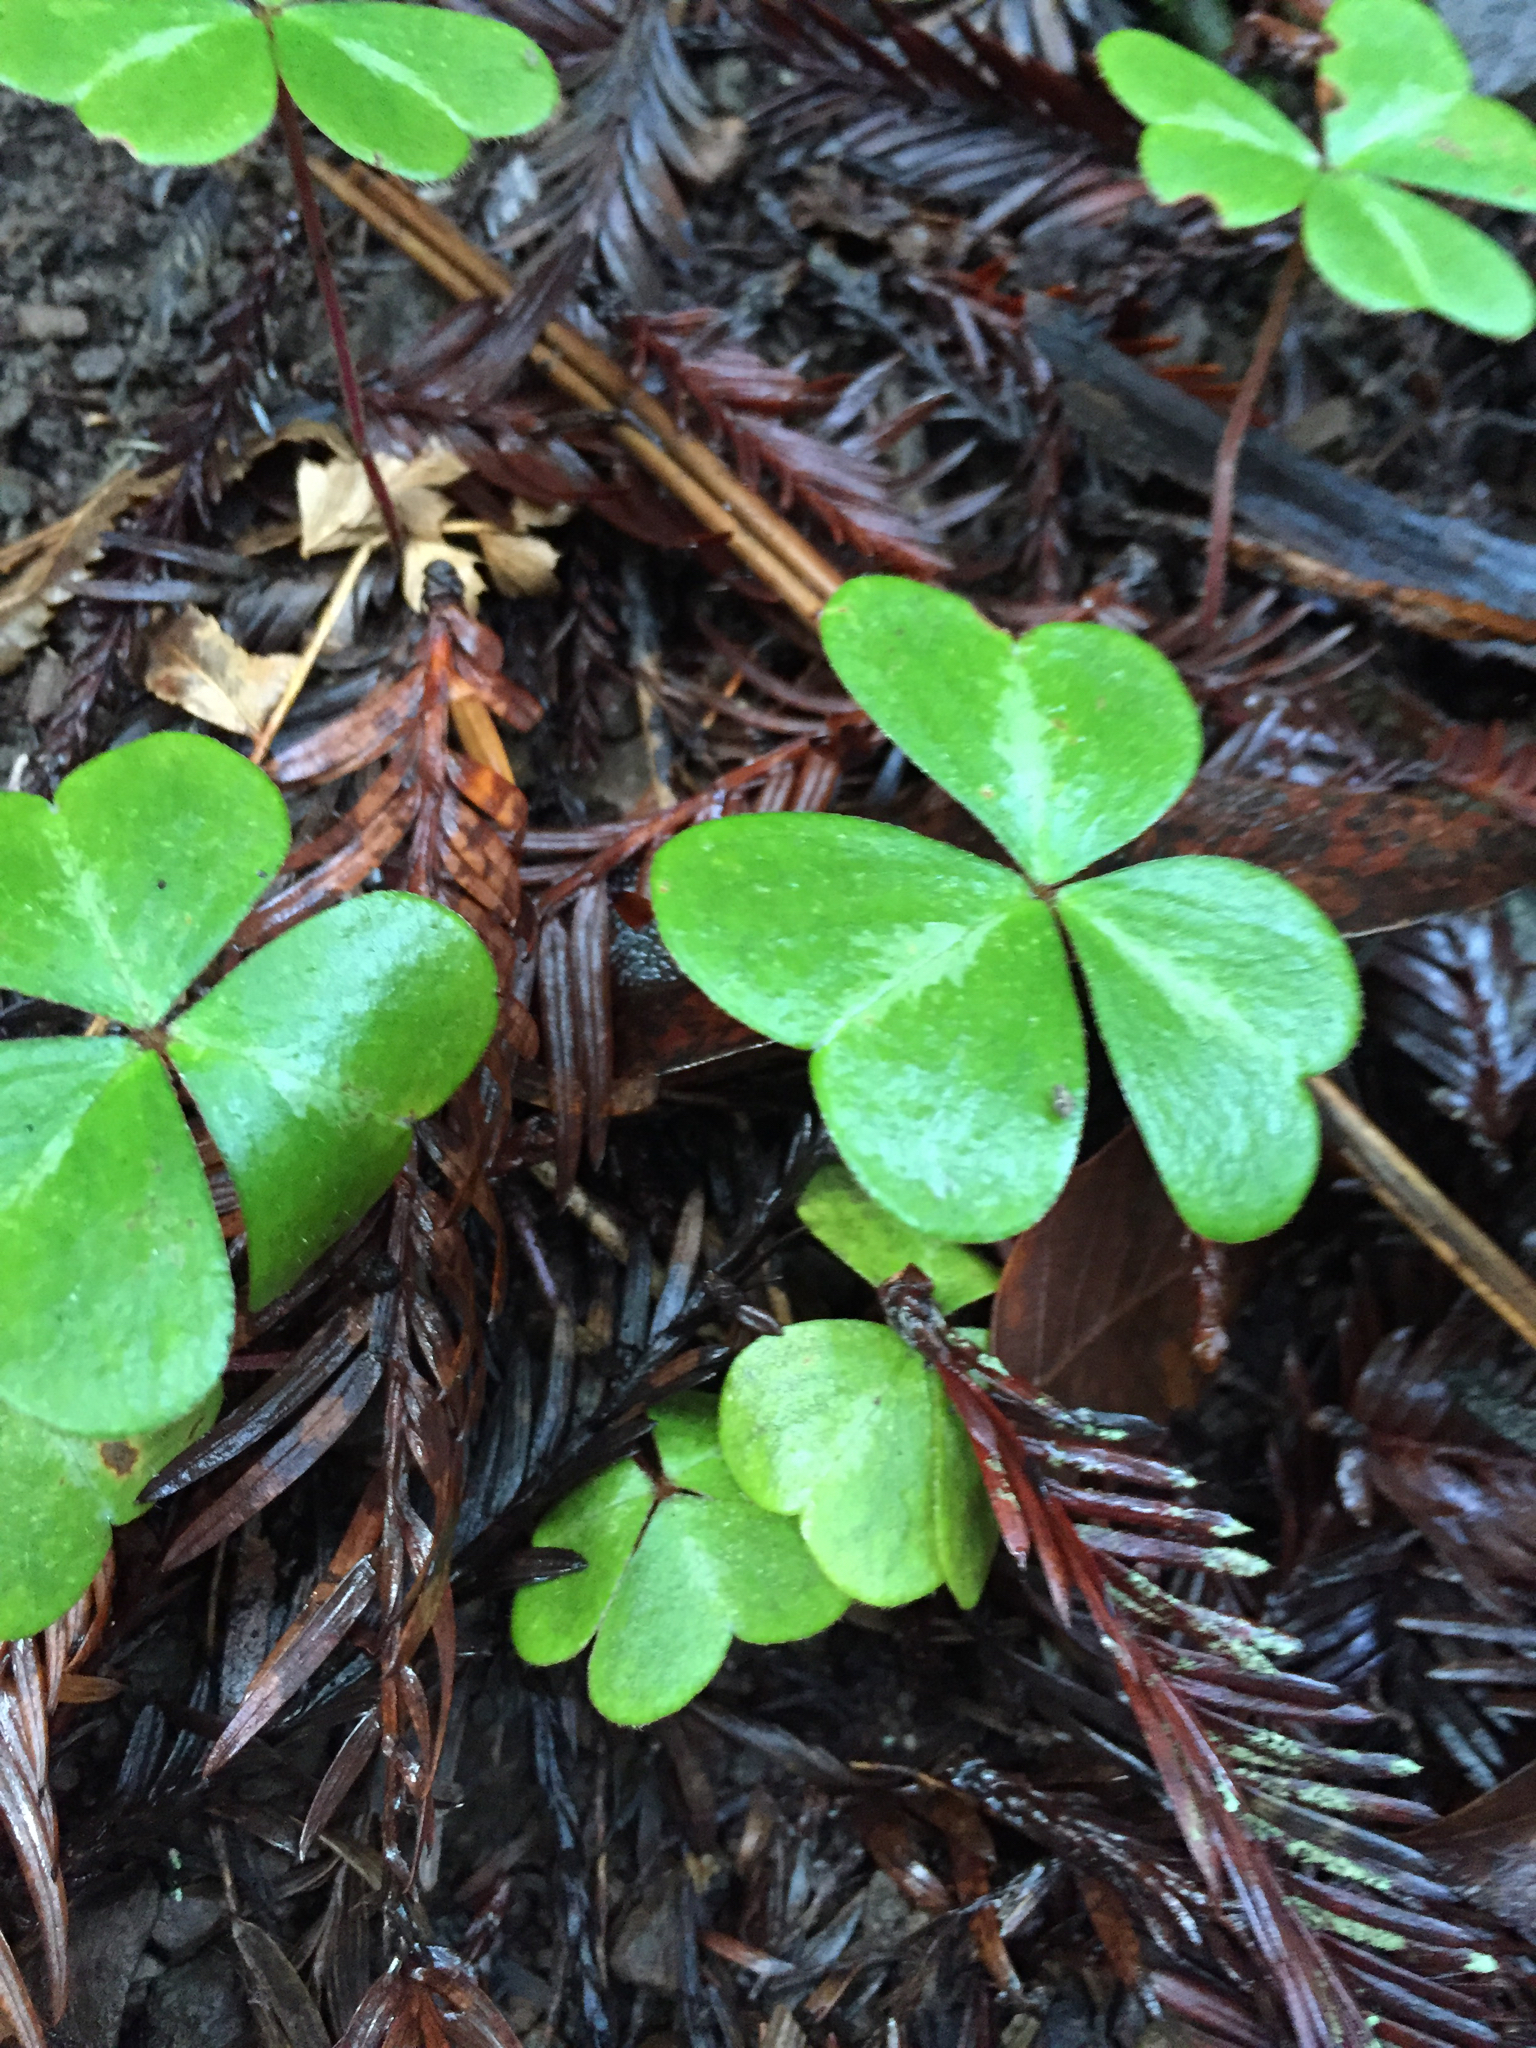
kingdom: Plantae
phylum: Tracheophyta
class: Magnoliopsida
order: Oxalidales
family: Oxalidaceae
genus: Oxalis
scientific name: Oxalis oregana
